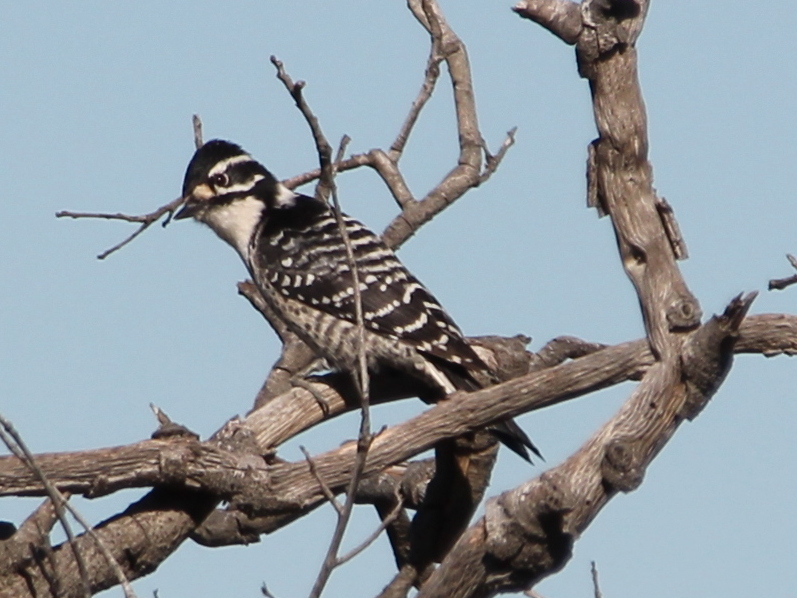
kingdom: Animalia
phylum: Chordata
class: Aves
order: Piciformes
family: Picidae
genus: Dryobates
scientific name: Dryobates nuttallii
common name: Nuttall's woodpecker
